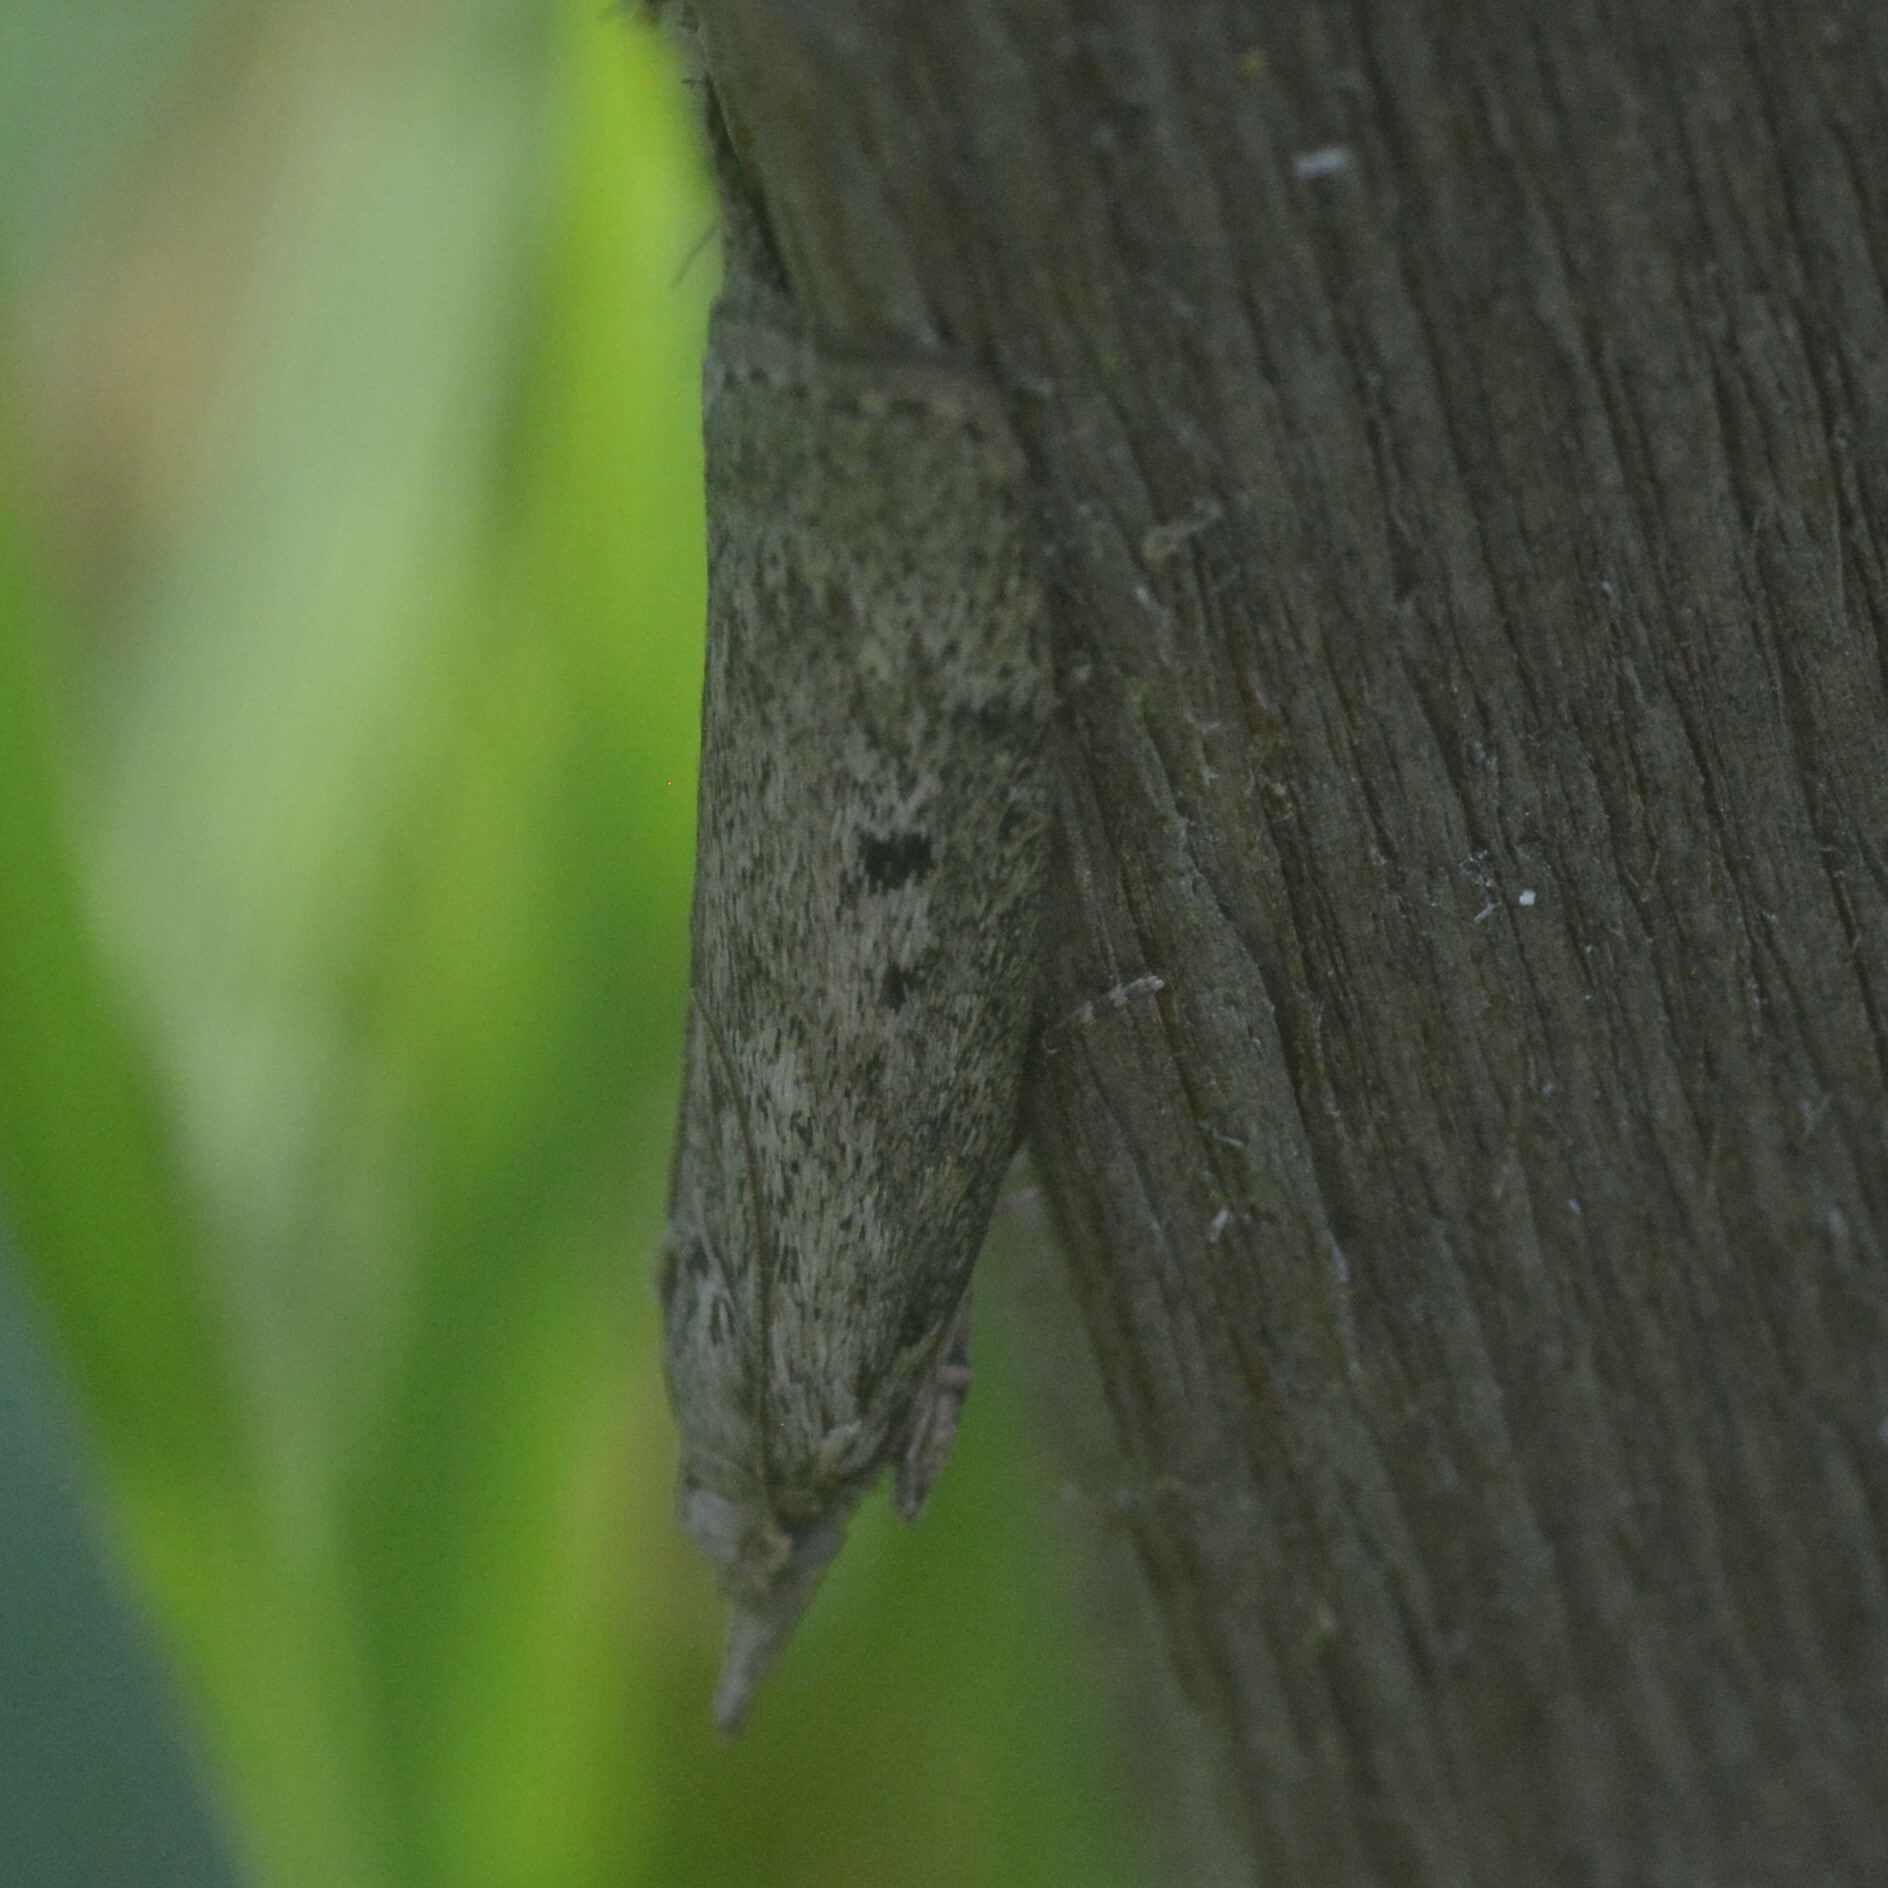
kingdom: Animalia
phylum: Arthropoda
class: Insecta
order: Lepidoptera
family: Pyralidae
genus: Aphomia
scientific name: Aphomia sociella
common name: Bee moth
